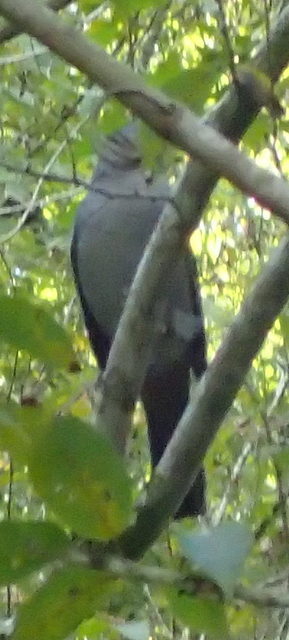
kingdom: Animalia
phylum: Chordata
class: Aves
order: Passeriformes
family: Mimidae
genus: Dumetella
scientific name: Dumetella carolinensis
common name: Gray catbird
